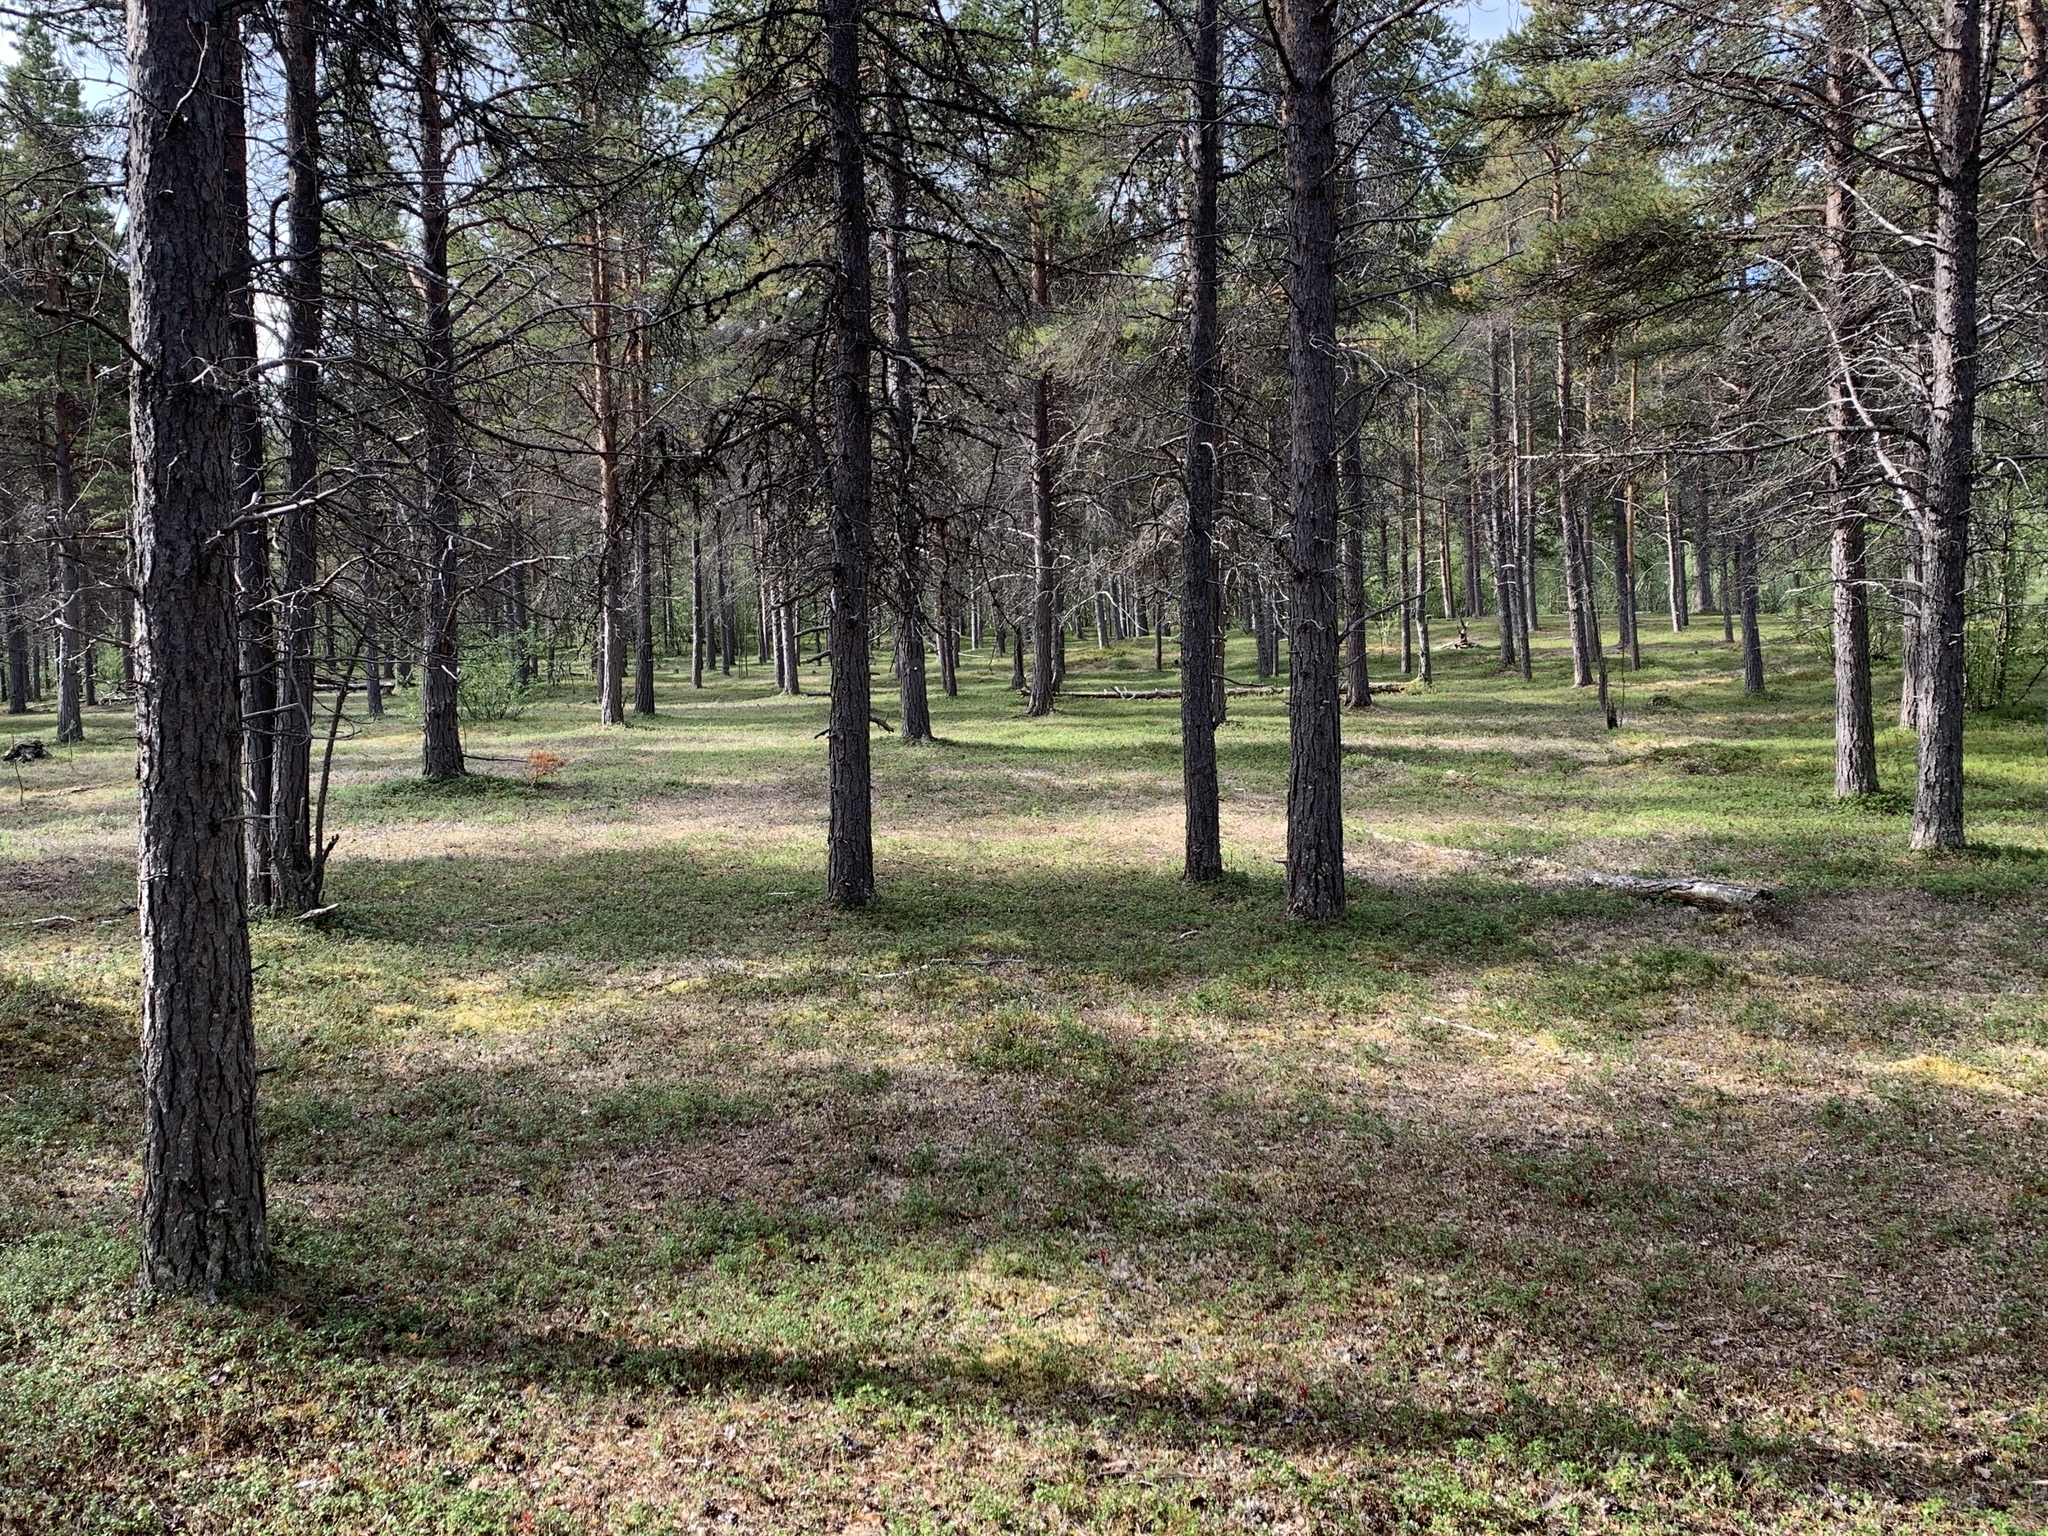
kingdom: Plantae
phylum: Tracheophyta
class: Pinopsida
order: Pinales
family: Pinaceae
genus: Pinus
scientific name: Pinus sylvestris
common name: Scots pine
